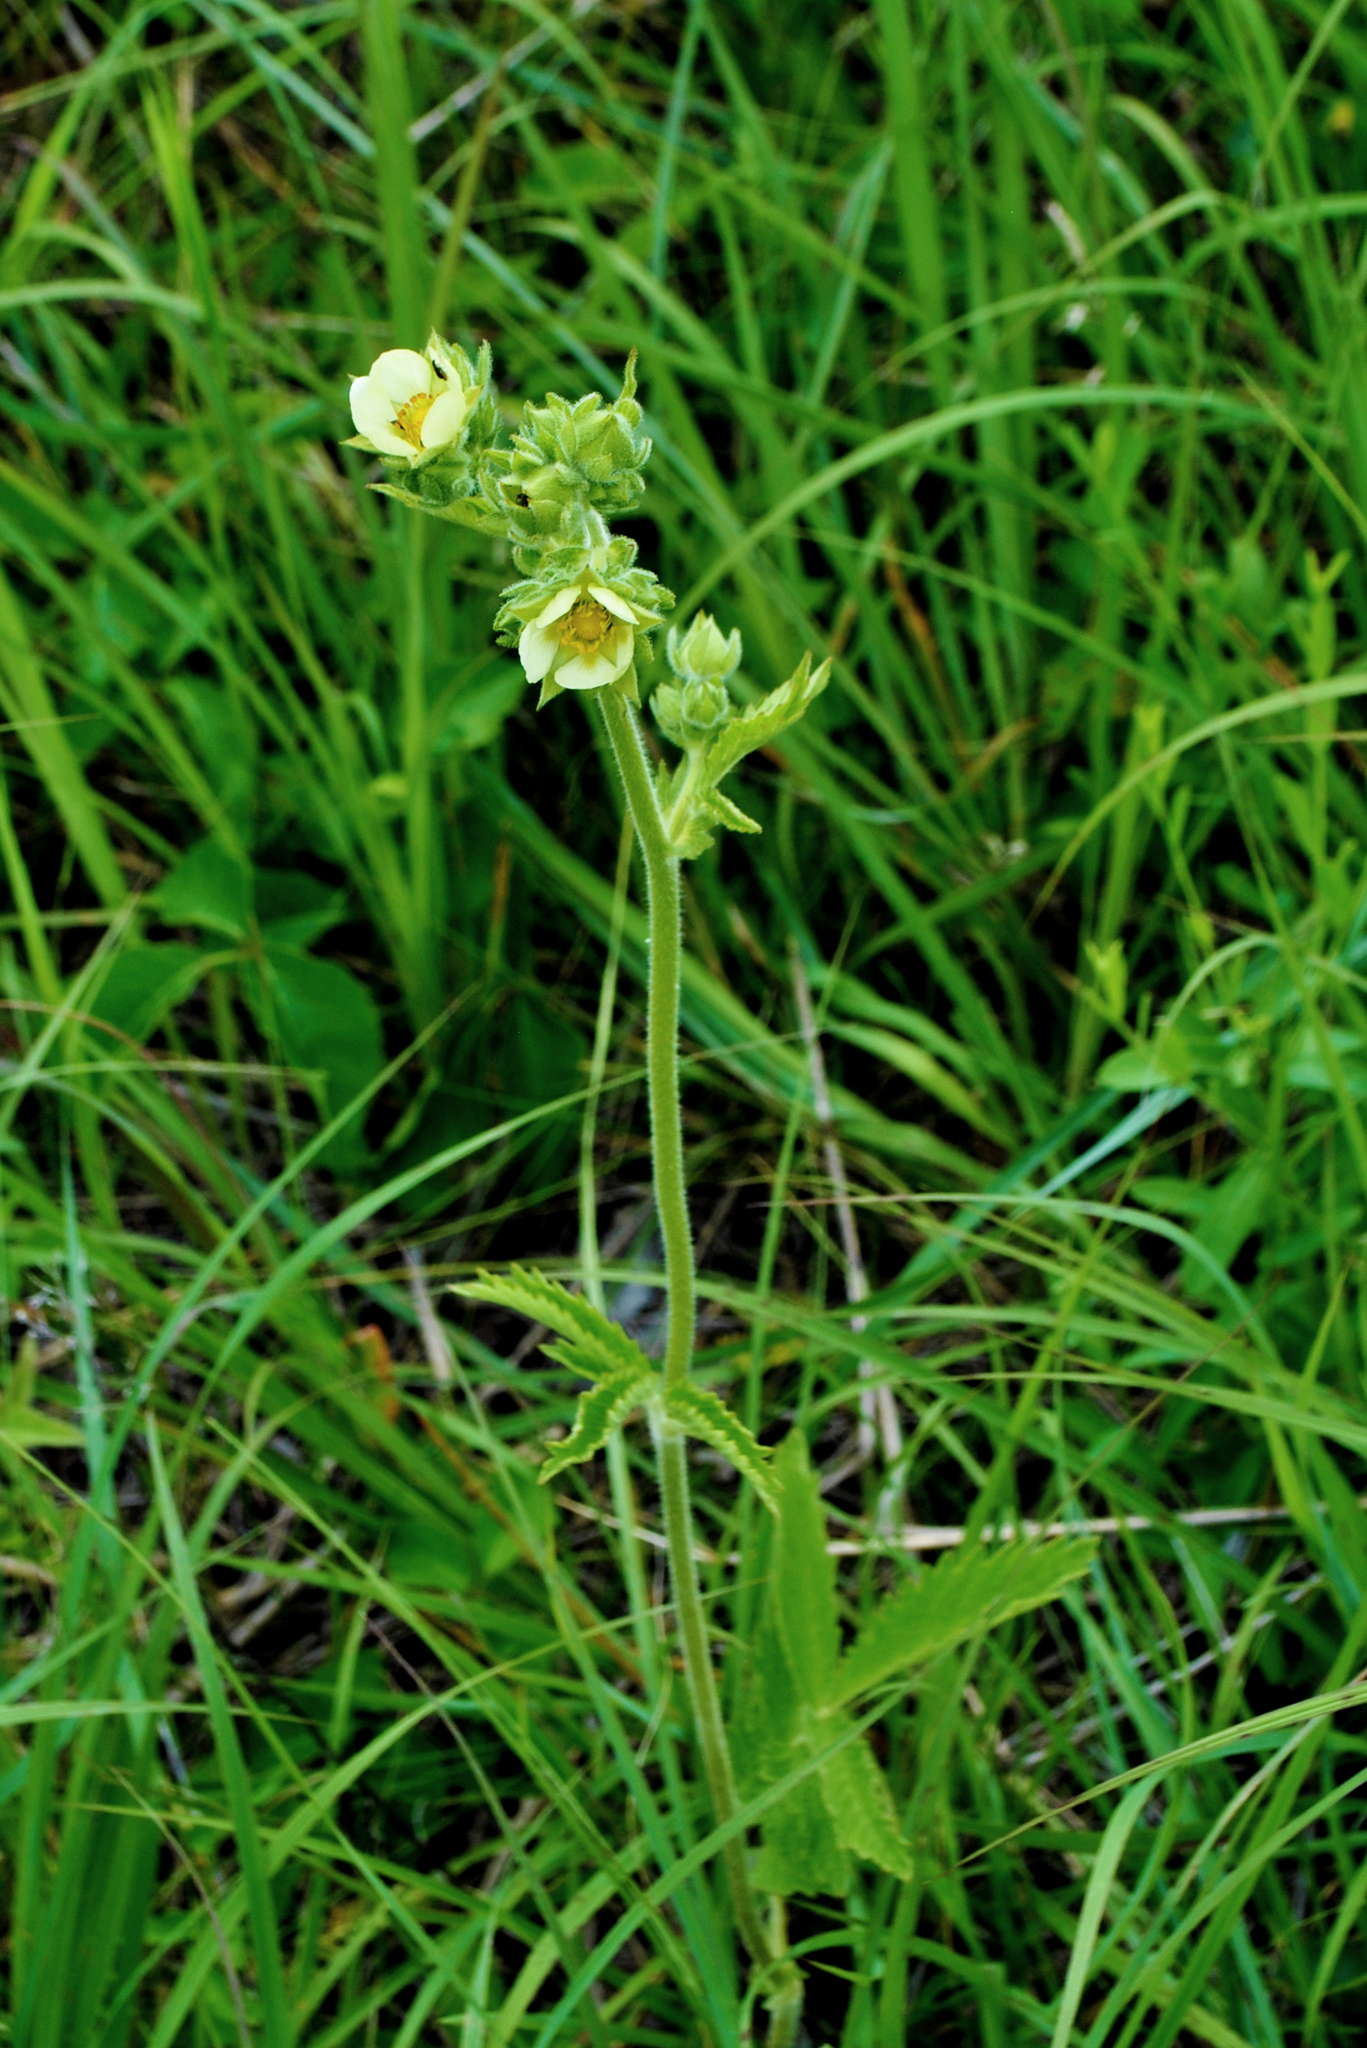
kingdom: Plantae
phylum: Tracheophyta
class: Magnoliopsida
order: Rosales
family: Rosaceae
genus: Drymocallis
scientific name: Drymocallis arguta
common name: Tall cinquefoil
